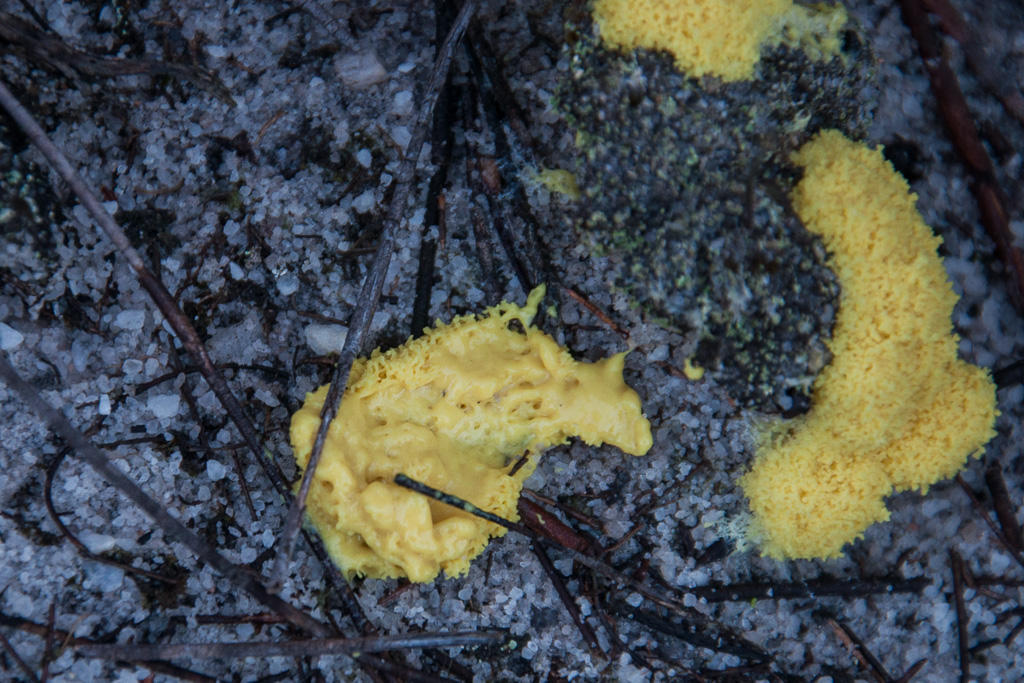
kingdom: Protozoa
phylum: Mycetozoa
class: Myxomycetes
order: Physarales
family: Physaraceae
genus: Fuligo
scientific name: Fuligo septica
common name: Dog vomit slime mold
